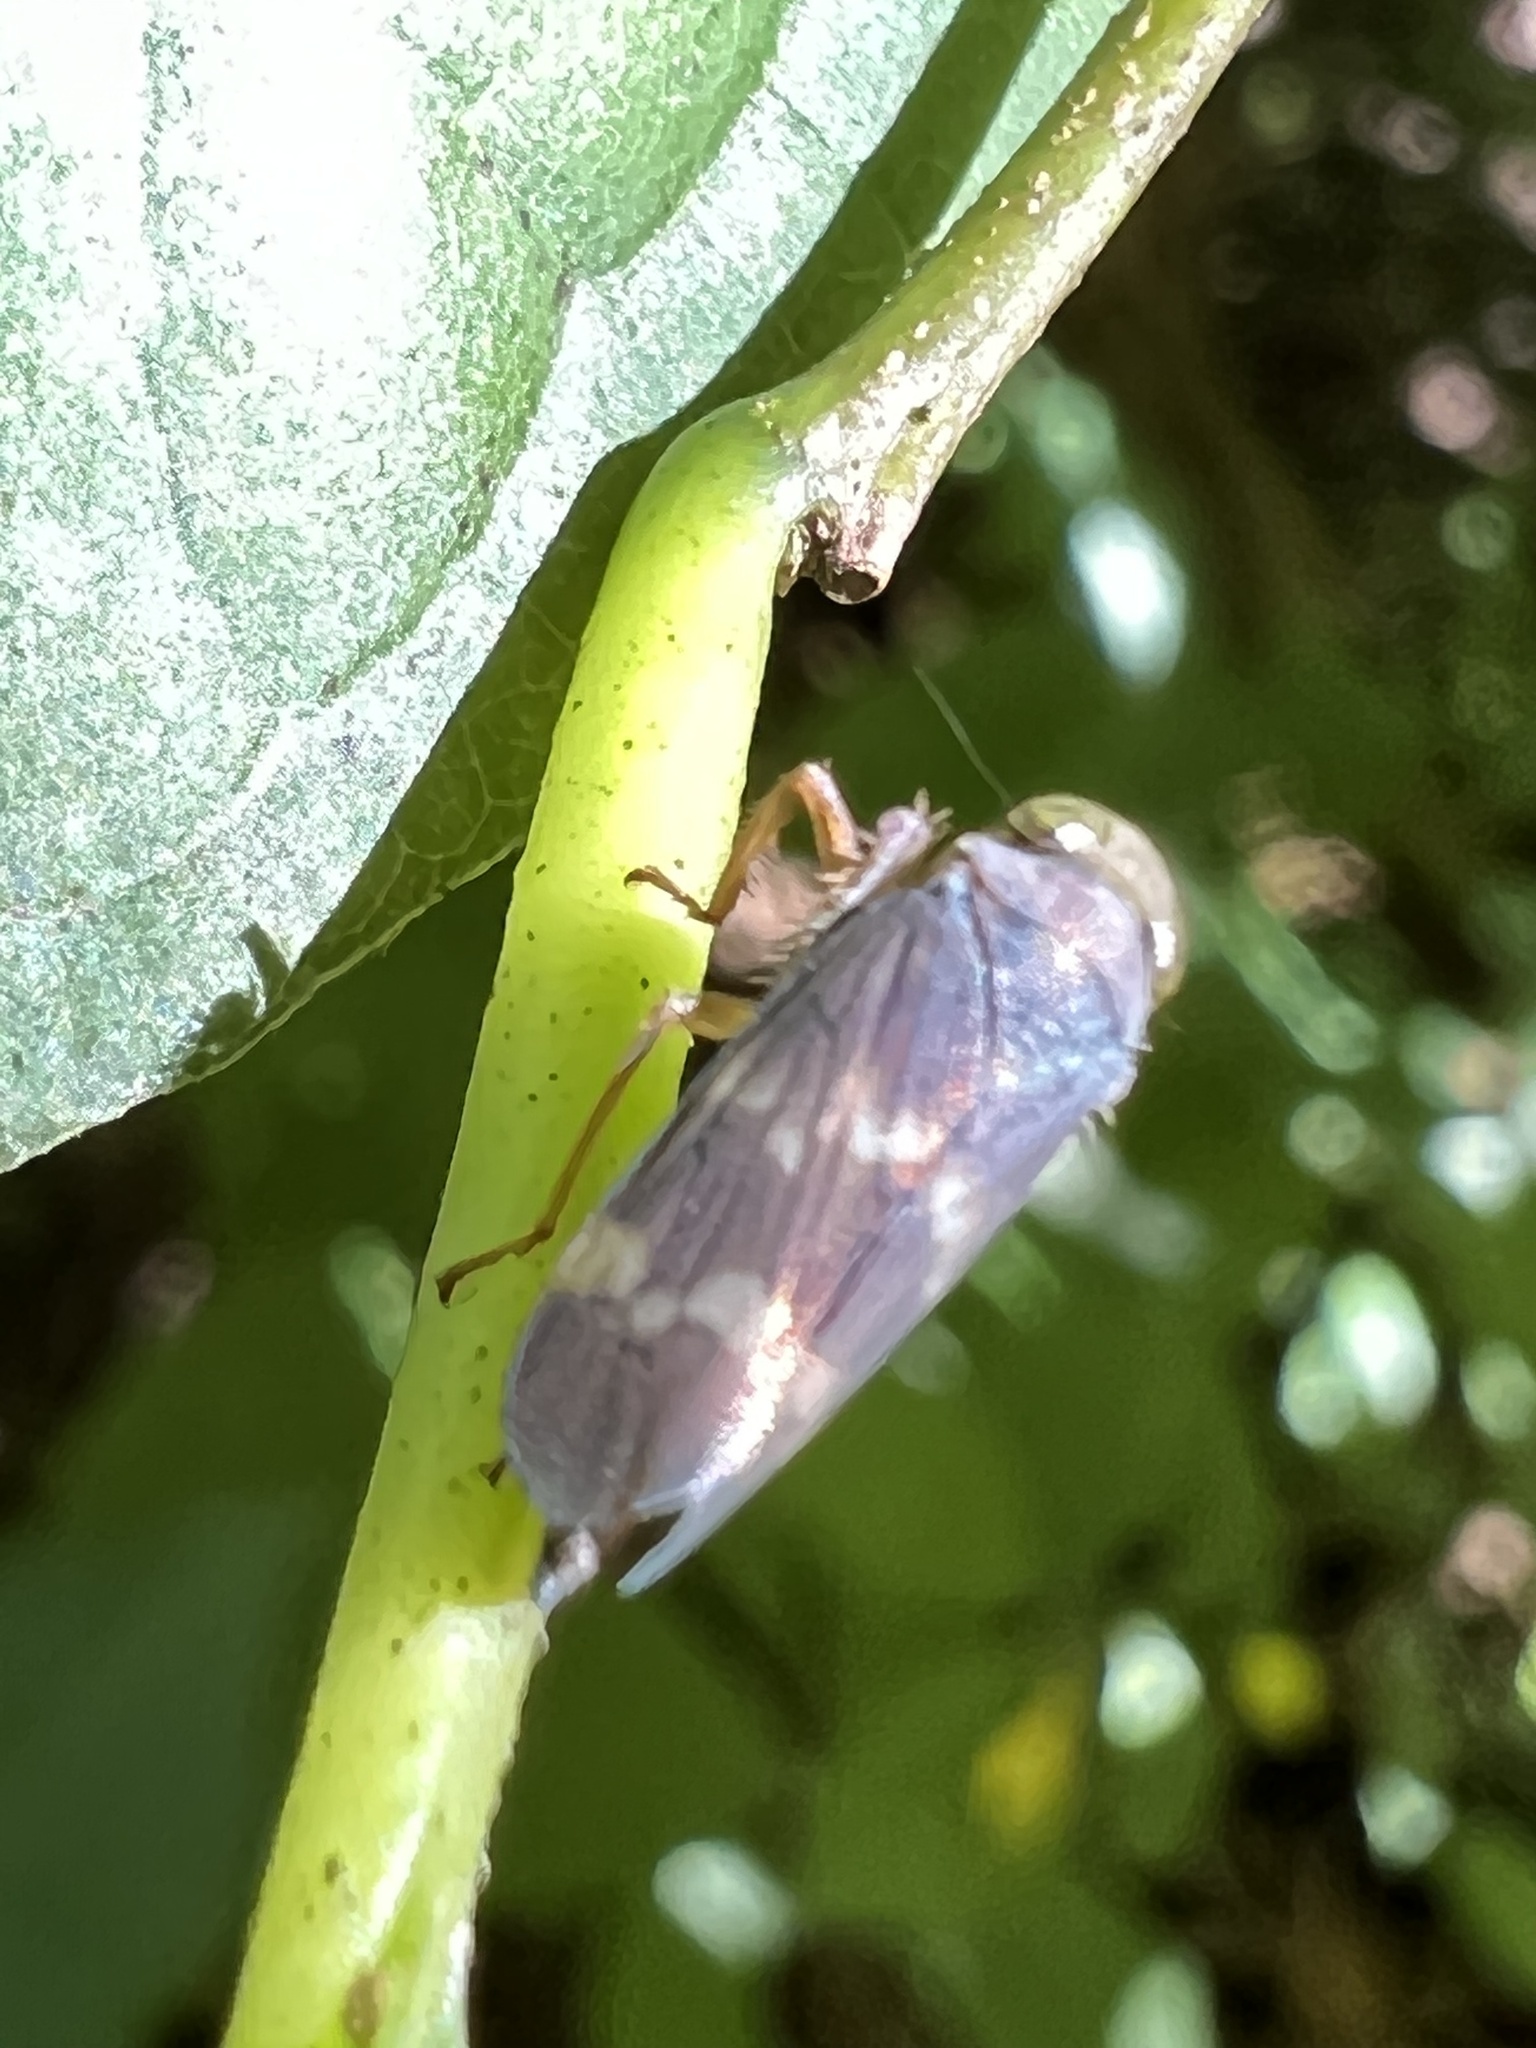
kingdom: Animalia
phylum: Arthropoda
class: Insecta
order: Hemiptera
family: Cicadellidae
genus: Jikradia
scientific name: Jikradia olitoria
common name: Coppery leafhopper
